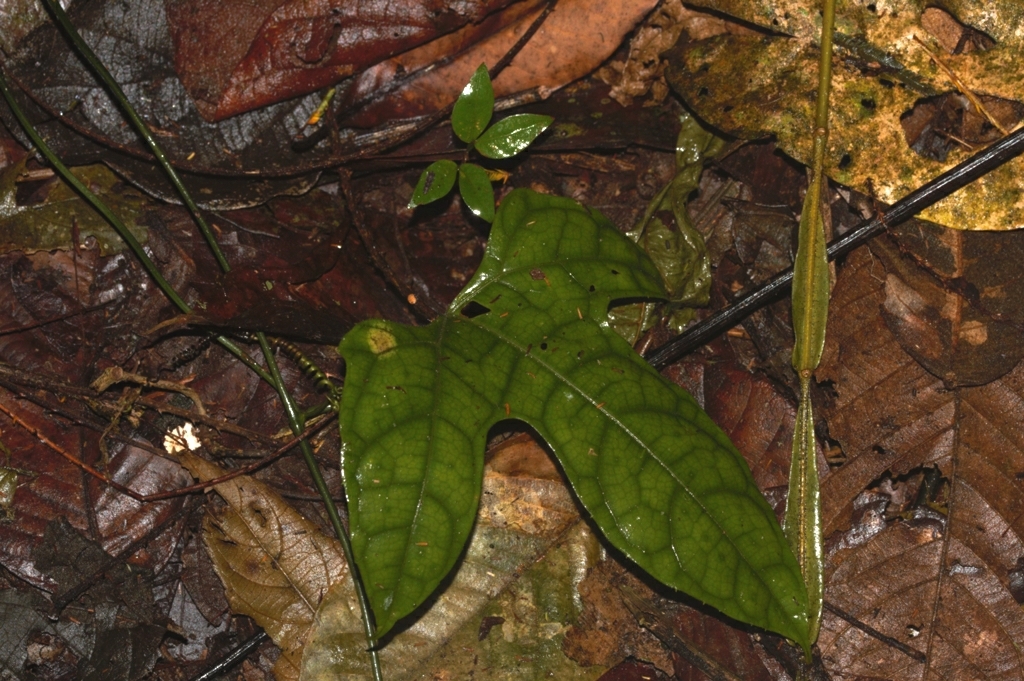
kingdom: Plantae
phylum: Tracheophyta
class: Magnoliopsida
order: Cucurbitales
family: Cucurbitaceae
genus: Gurania
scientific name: Gurania huebneri
